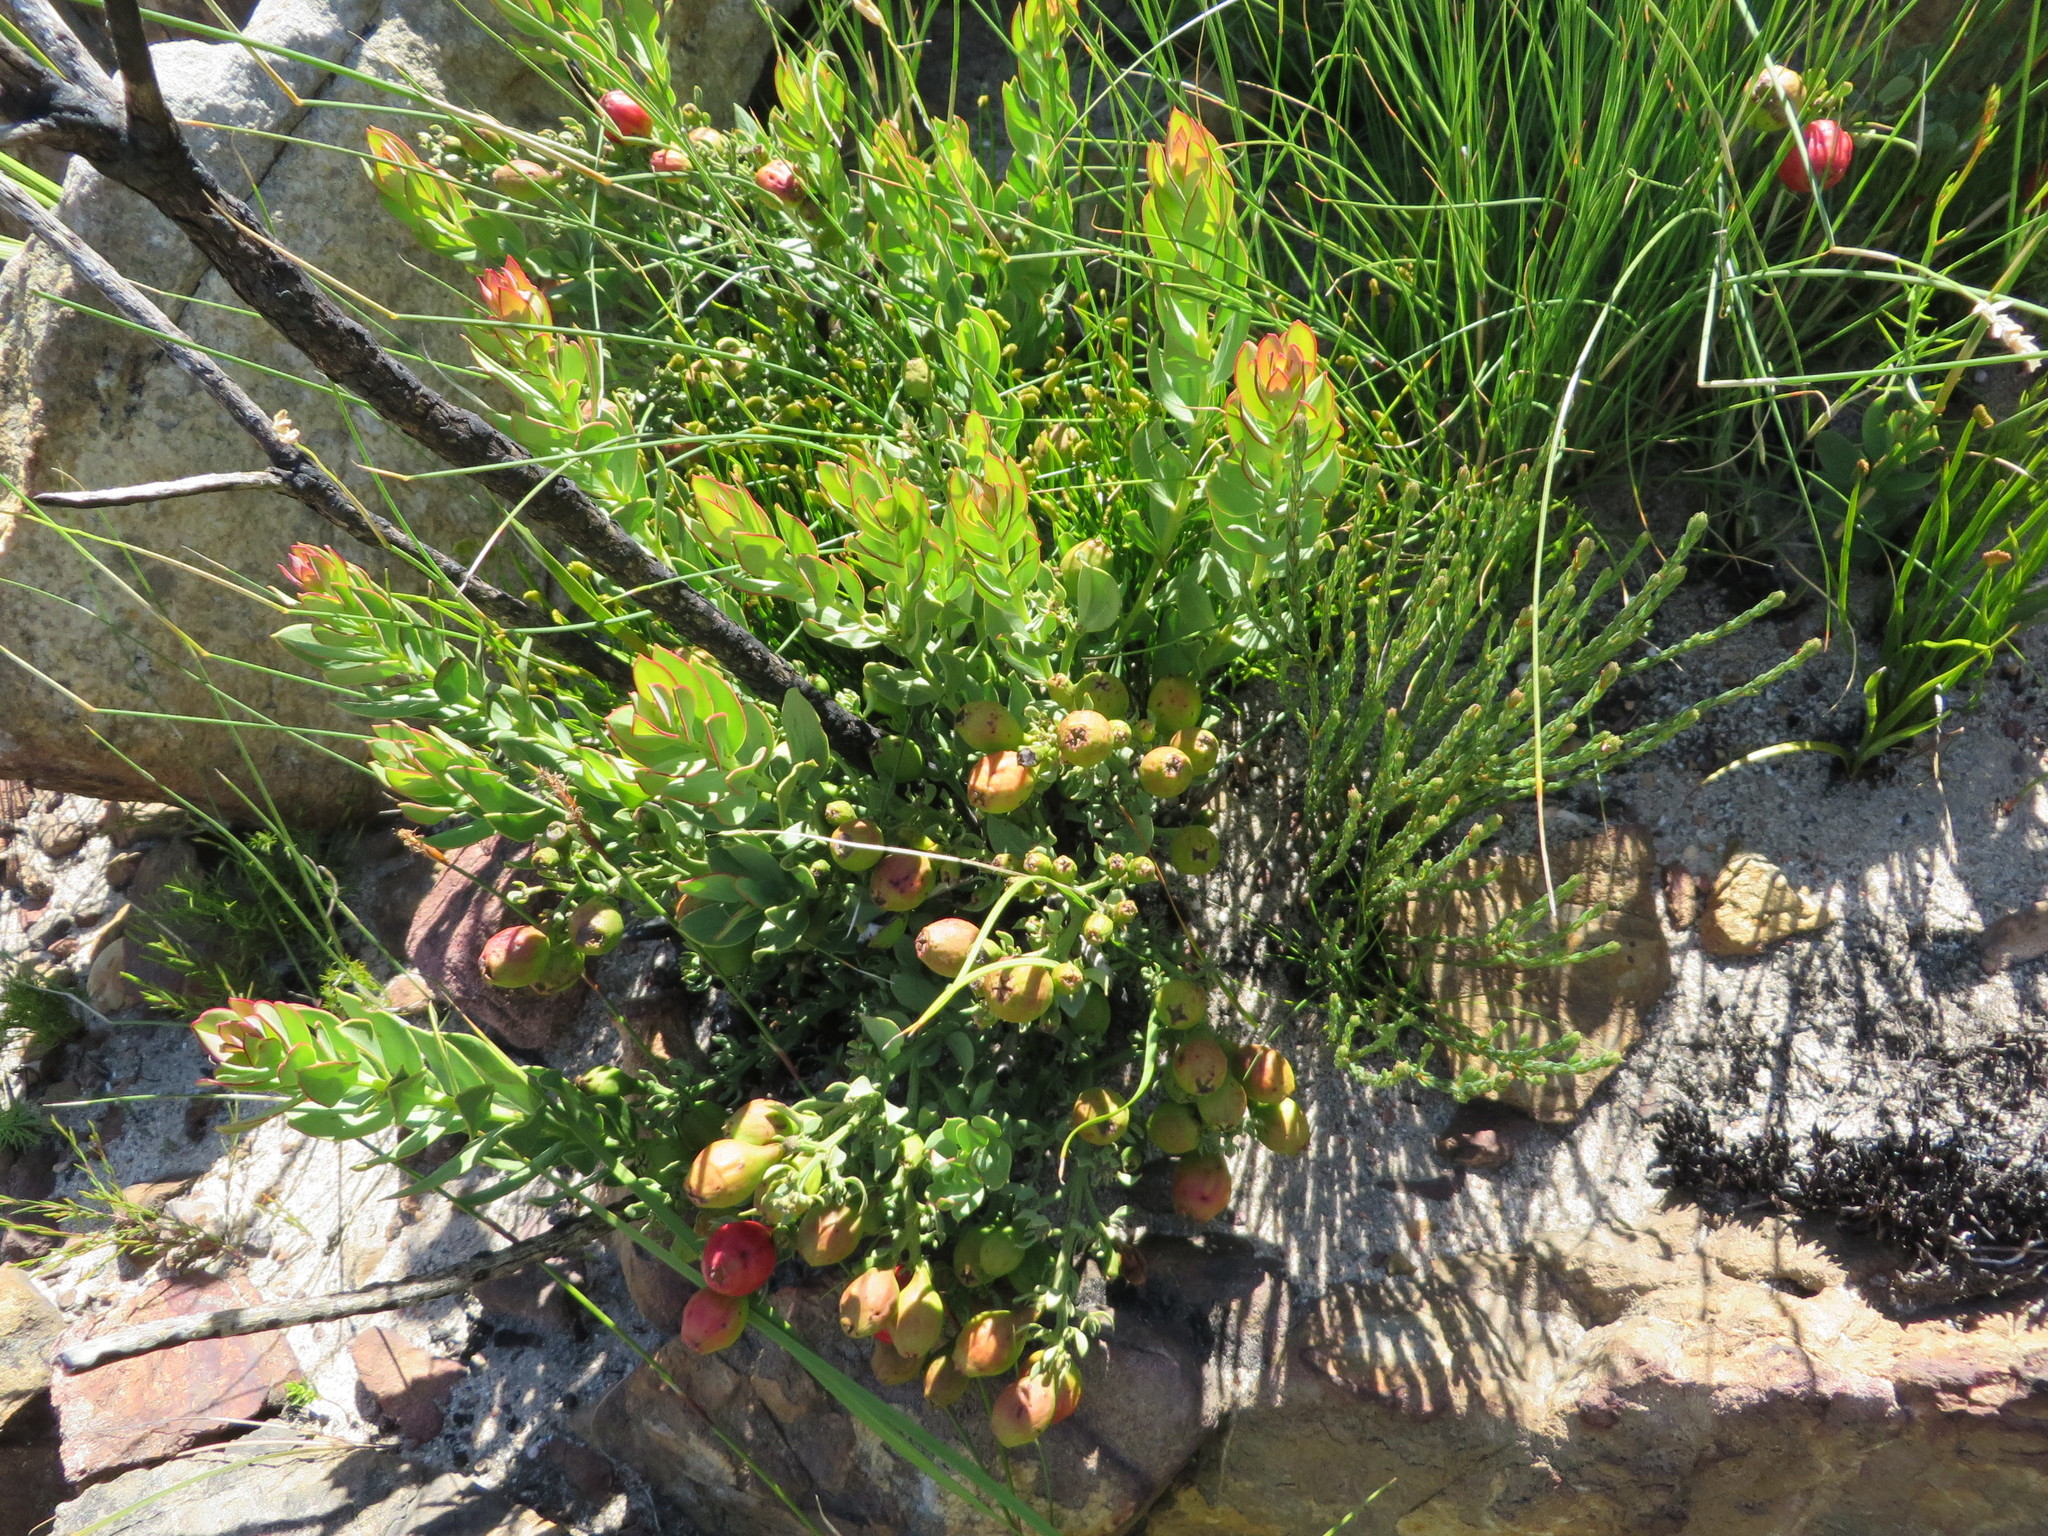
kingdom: Plantae
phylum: Tracheophyta
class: Magnoliopsida
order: Santalales
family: Santalaceae
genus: Osyris
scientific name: Osyris speciosa
